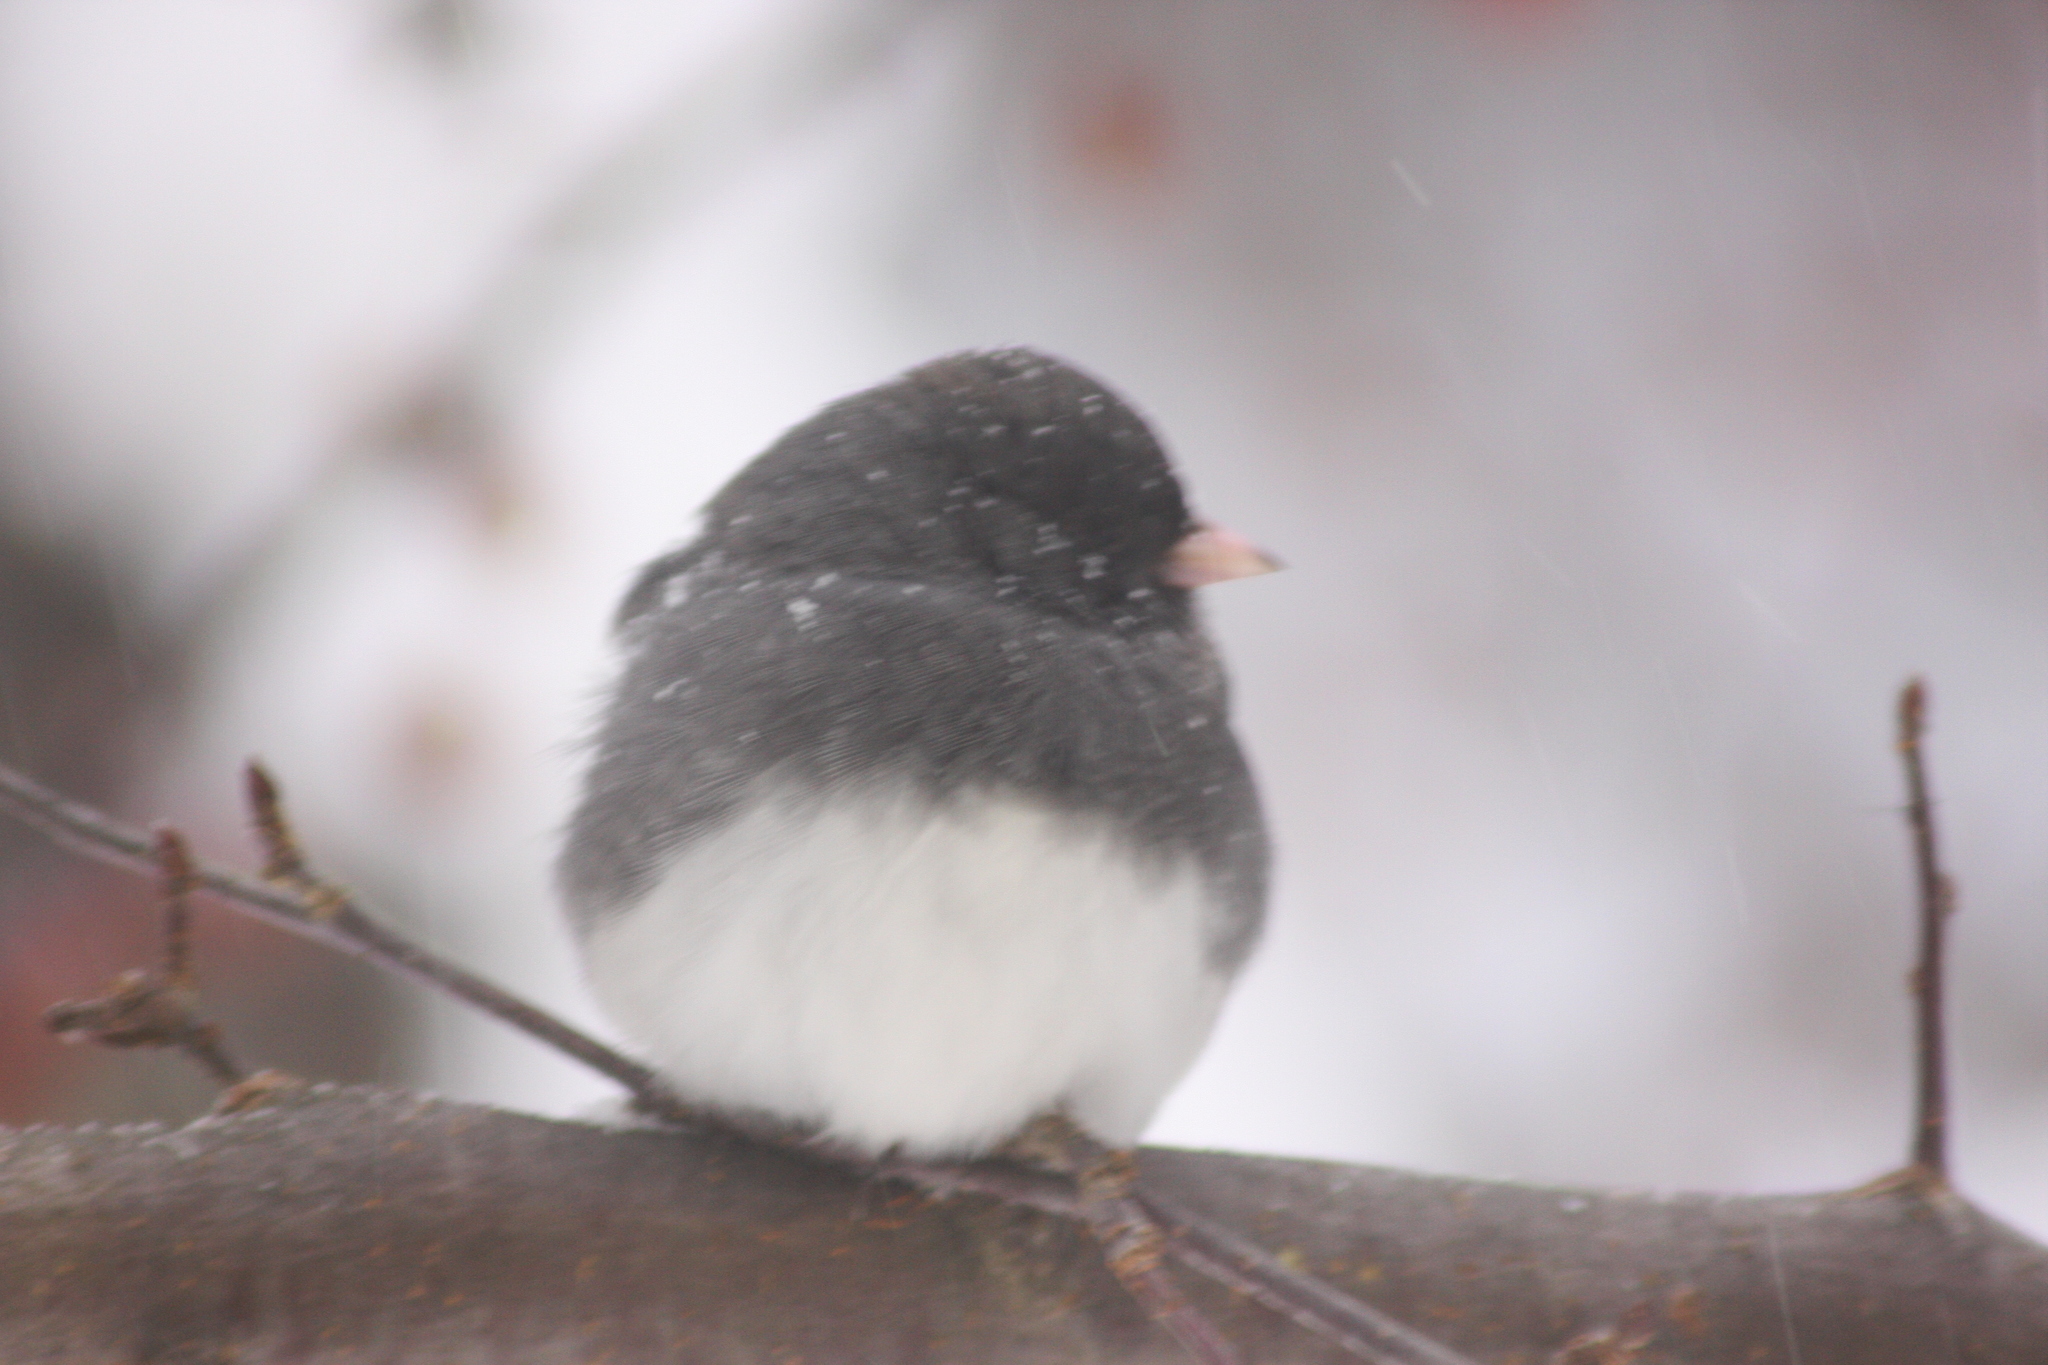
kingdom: Animalia
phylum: Chordata
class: Aves
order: Passeriformes
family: Passerellidae
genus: Junco
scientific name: Junco hyemalis
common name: Dark-eyed junco
